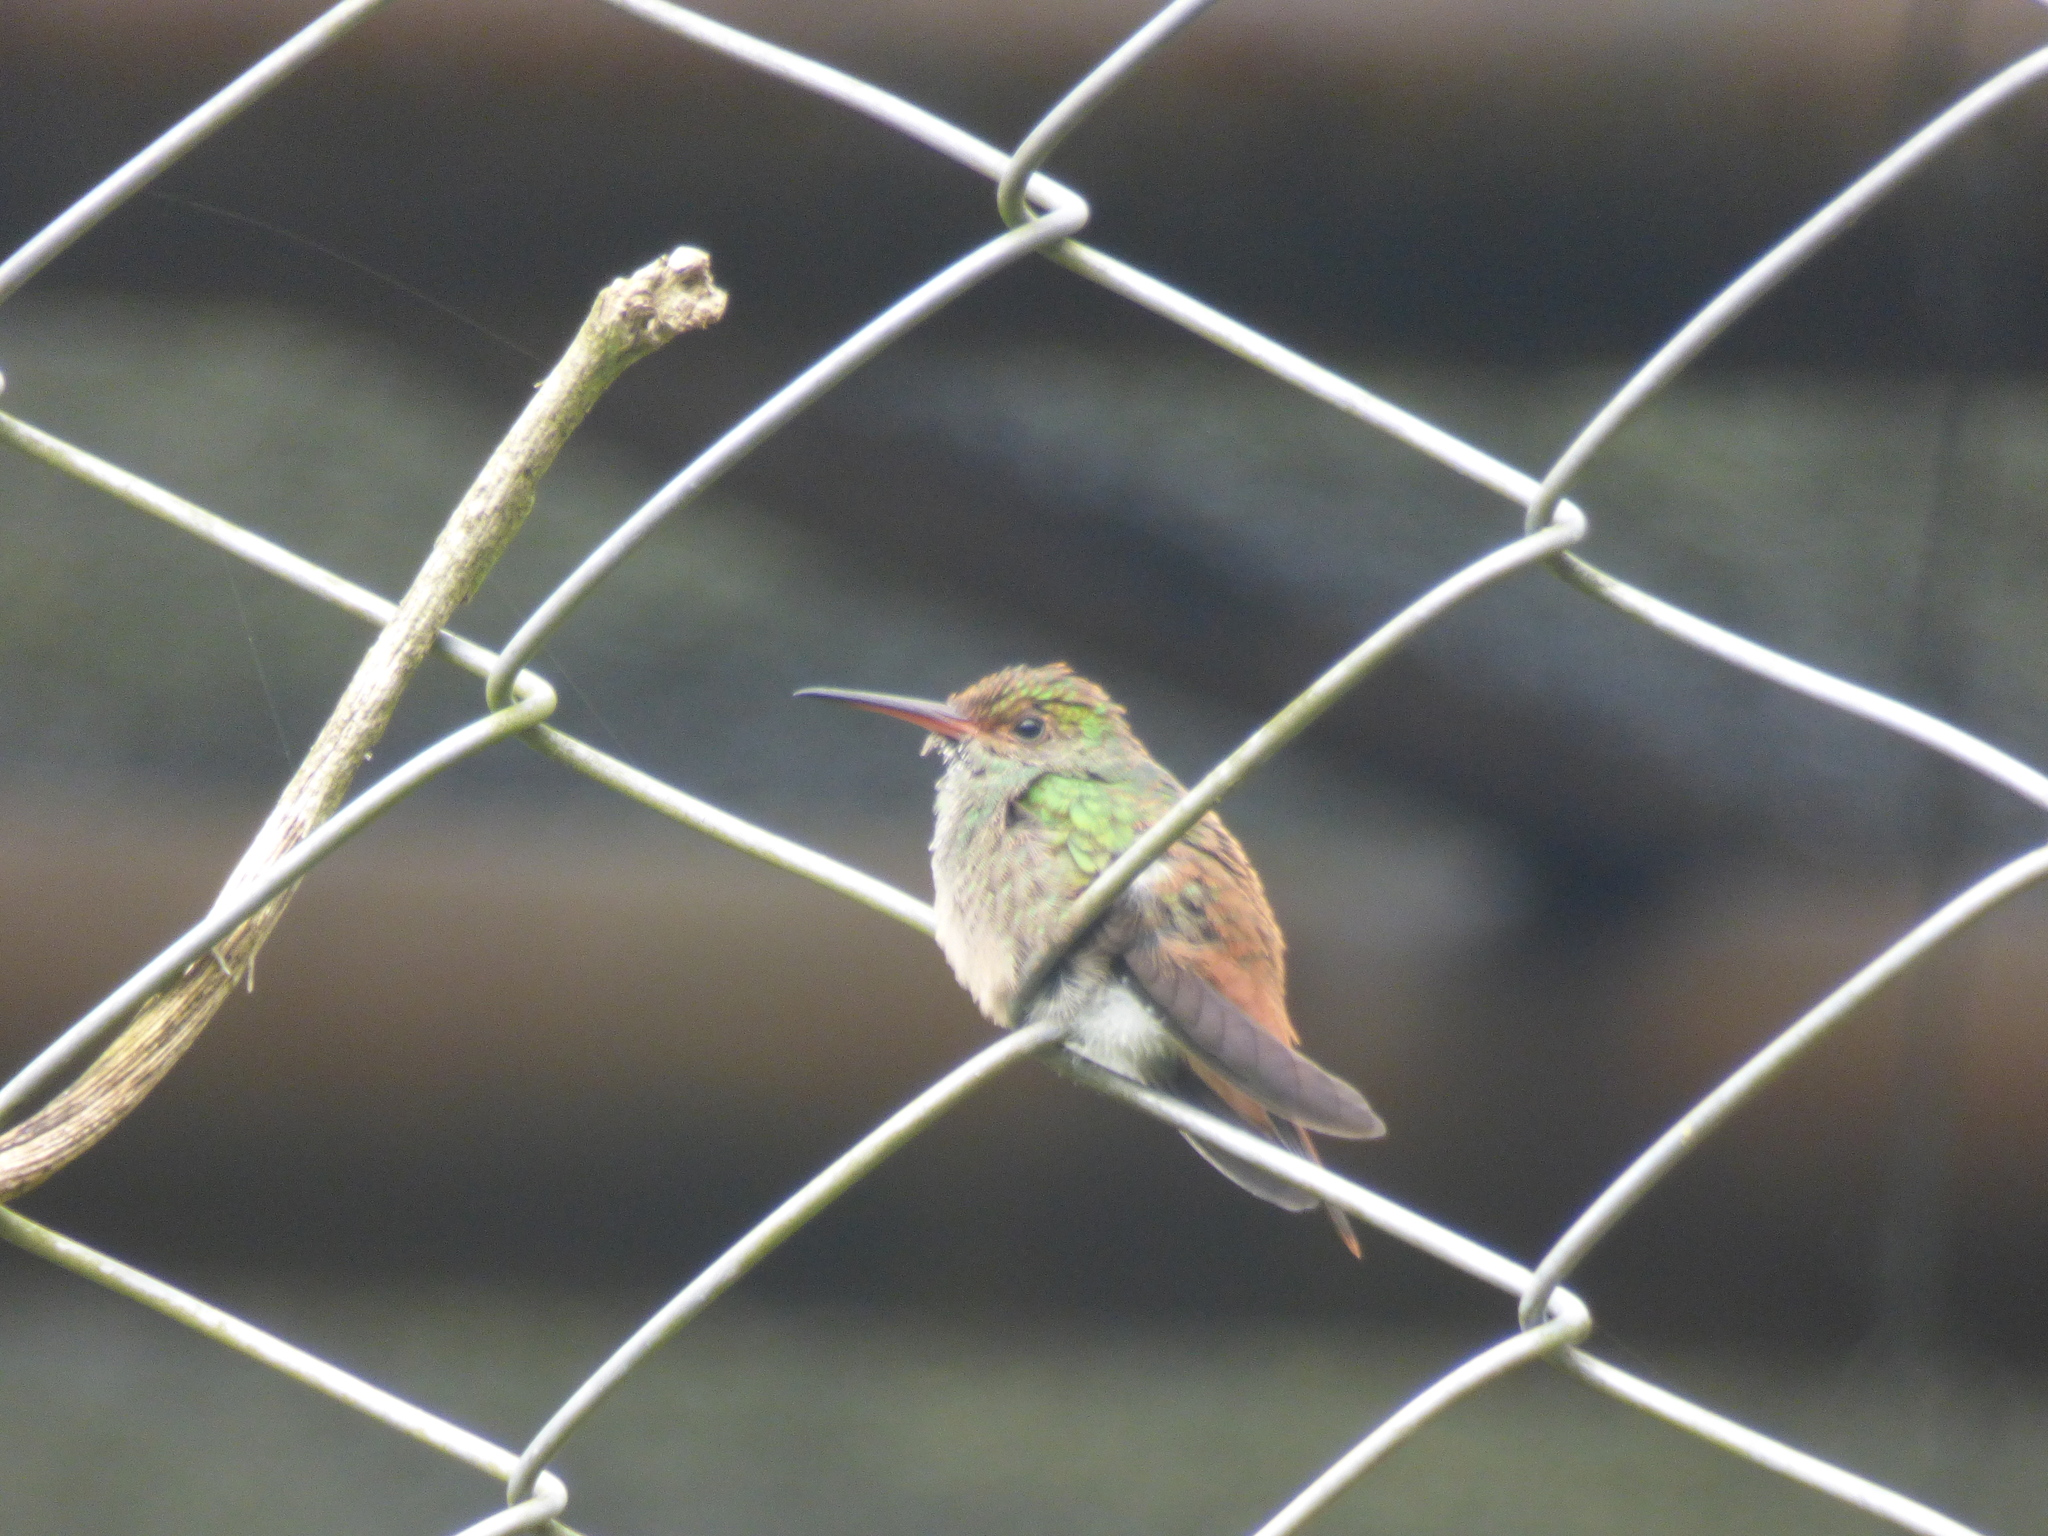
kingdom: Animalia
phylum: Chordata
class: Aves
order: Apodiformes
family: Trochilidae
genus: Amazilia
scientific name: Amazilia tzacatl
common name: Rufous-tailed hummingbird
